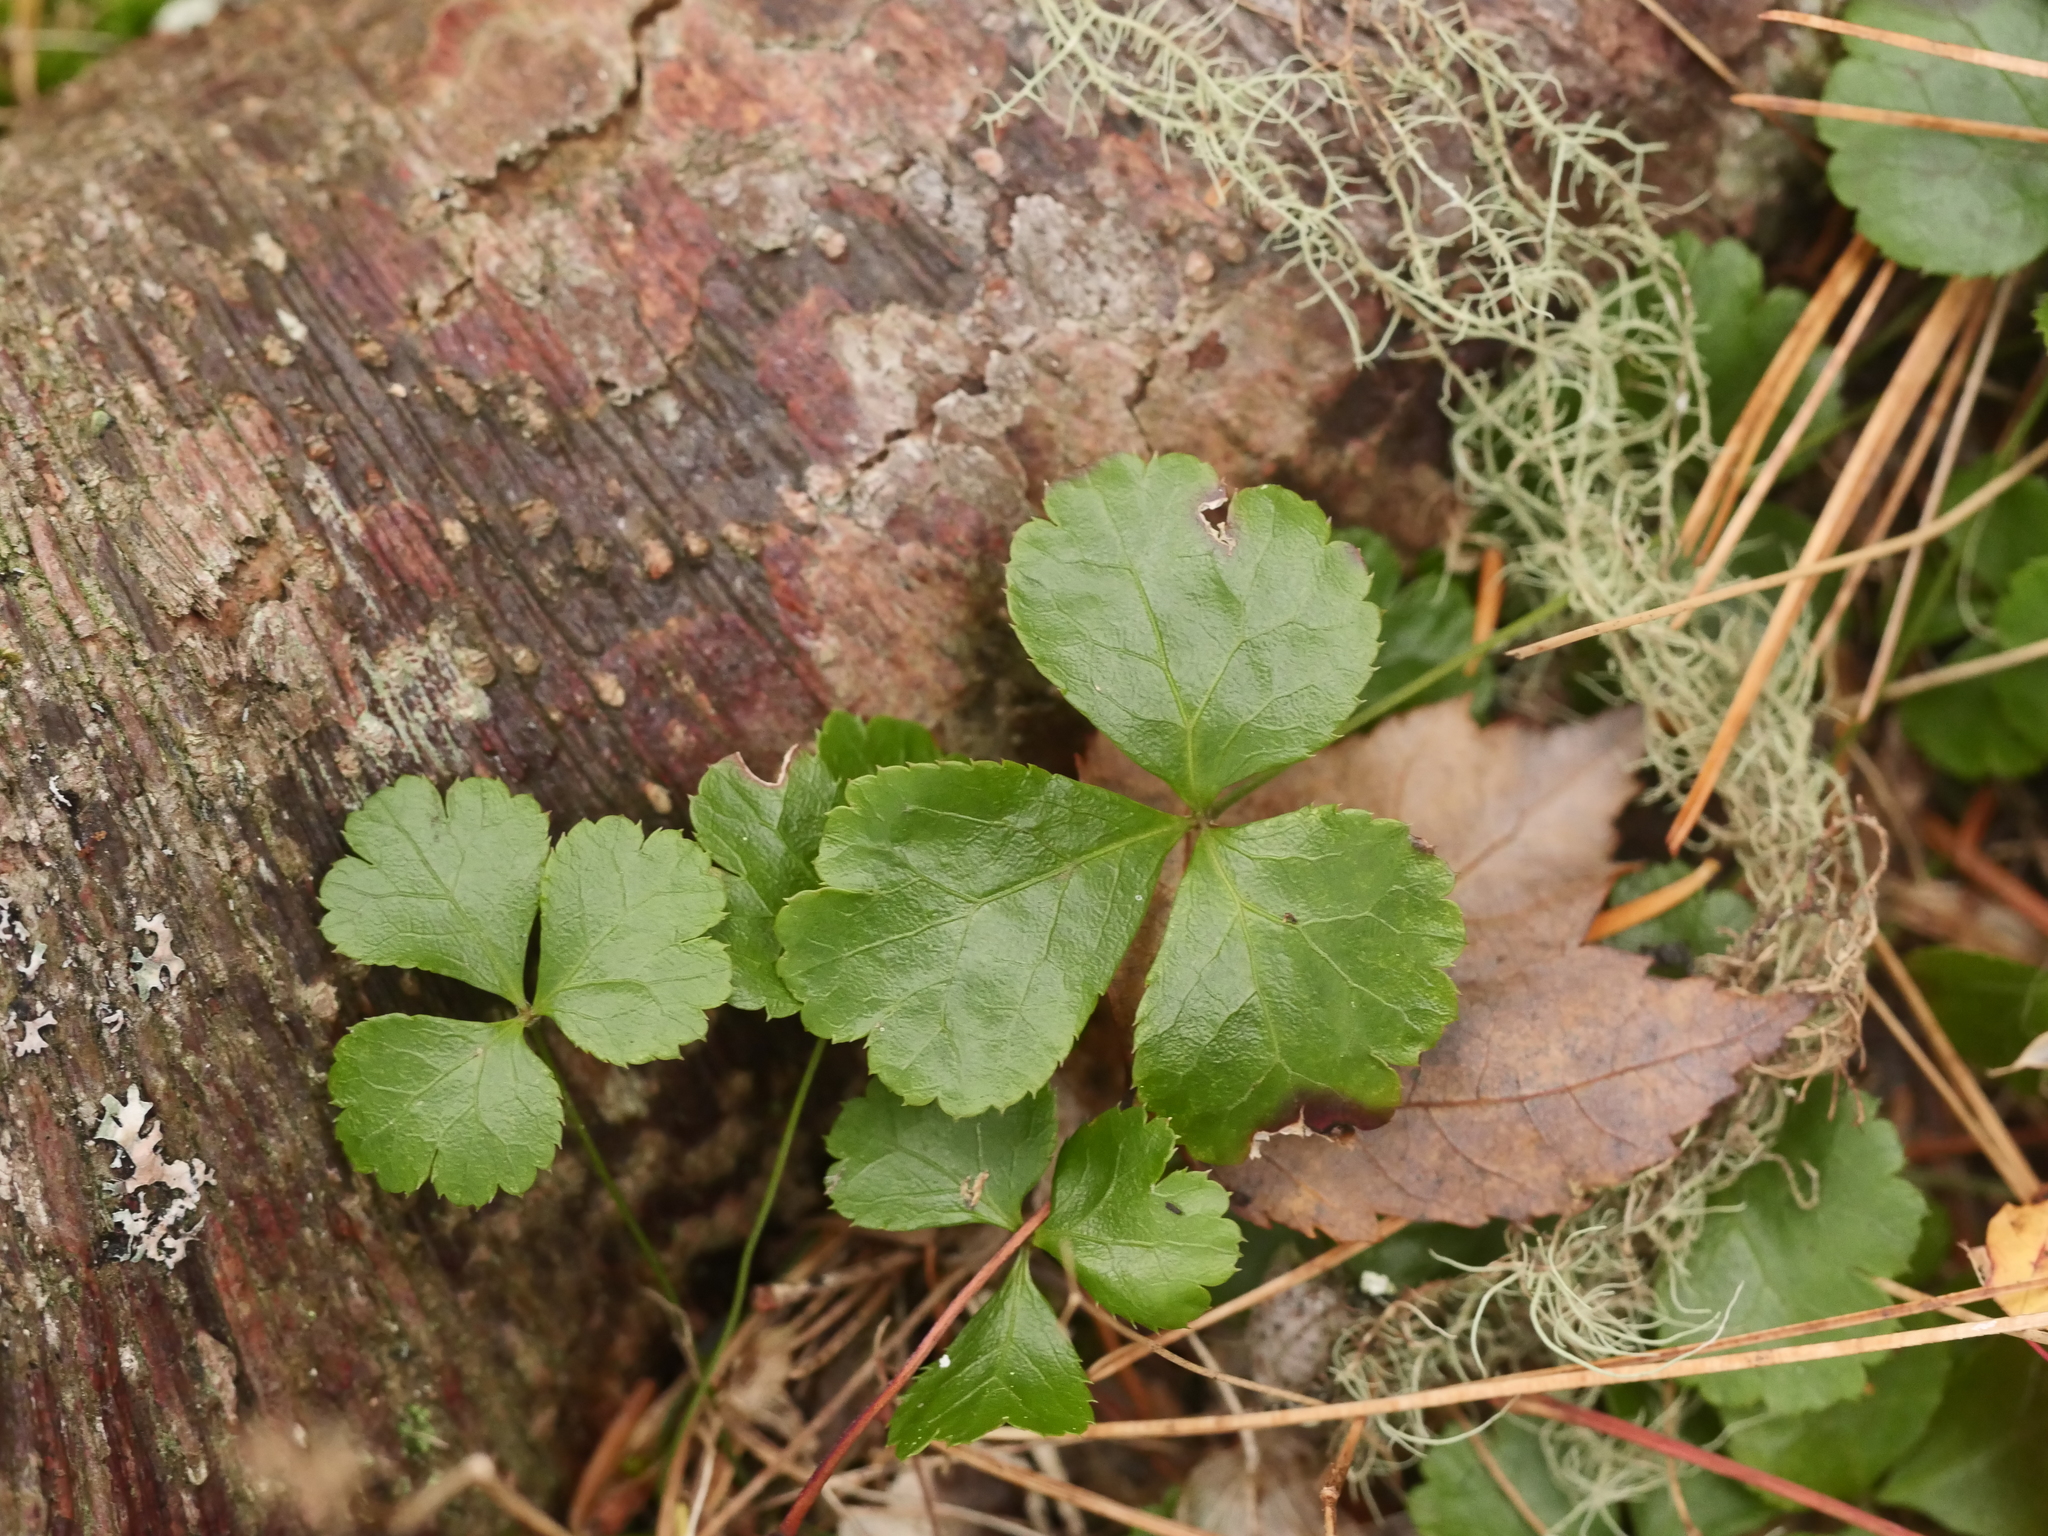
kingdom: Plantae
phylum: Tracheophyta
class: Magnoliopsida
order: Ranunculales
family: Ranunculaceae
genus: Coptis
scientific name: Coptis trifolia
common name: Canker-root
